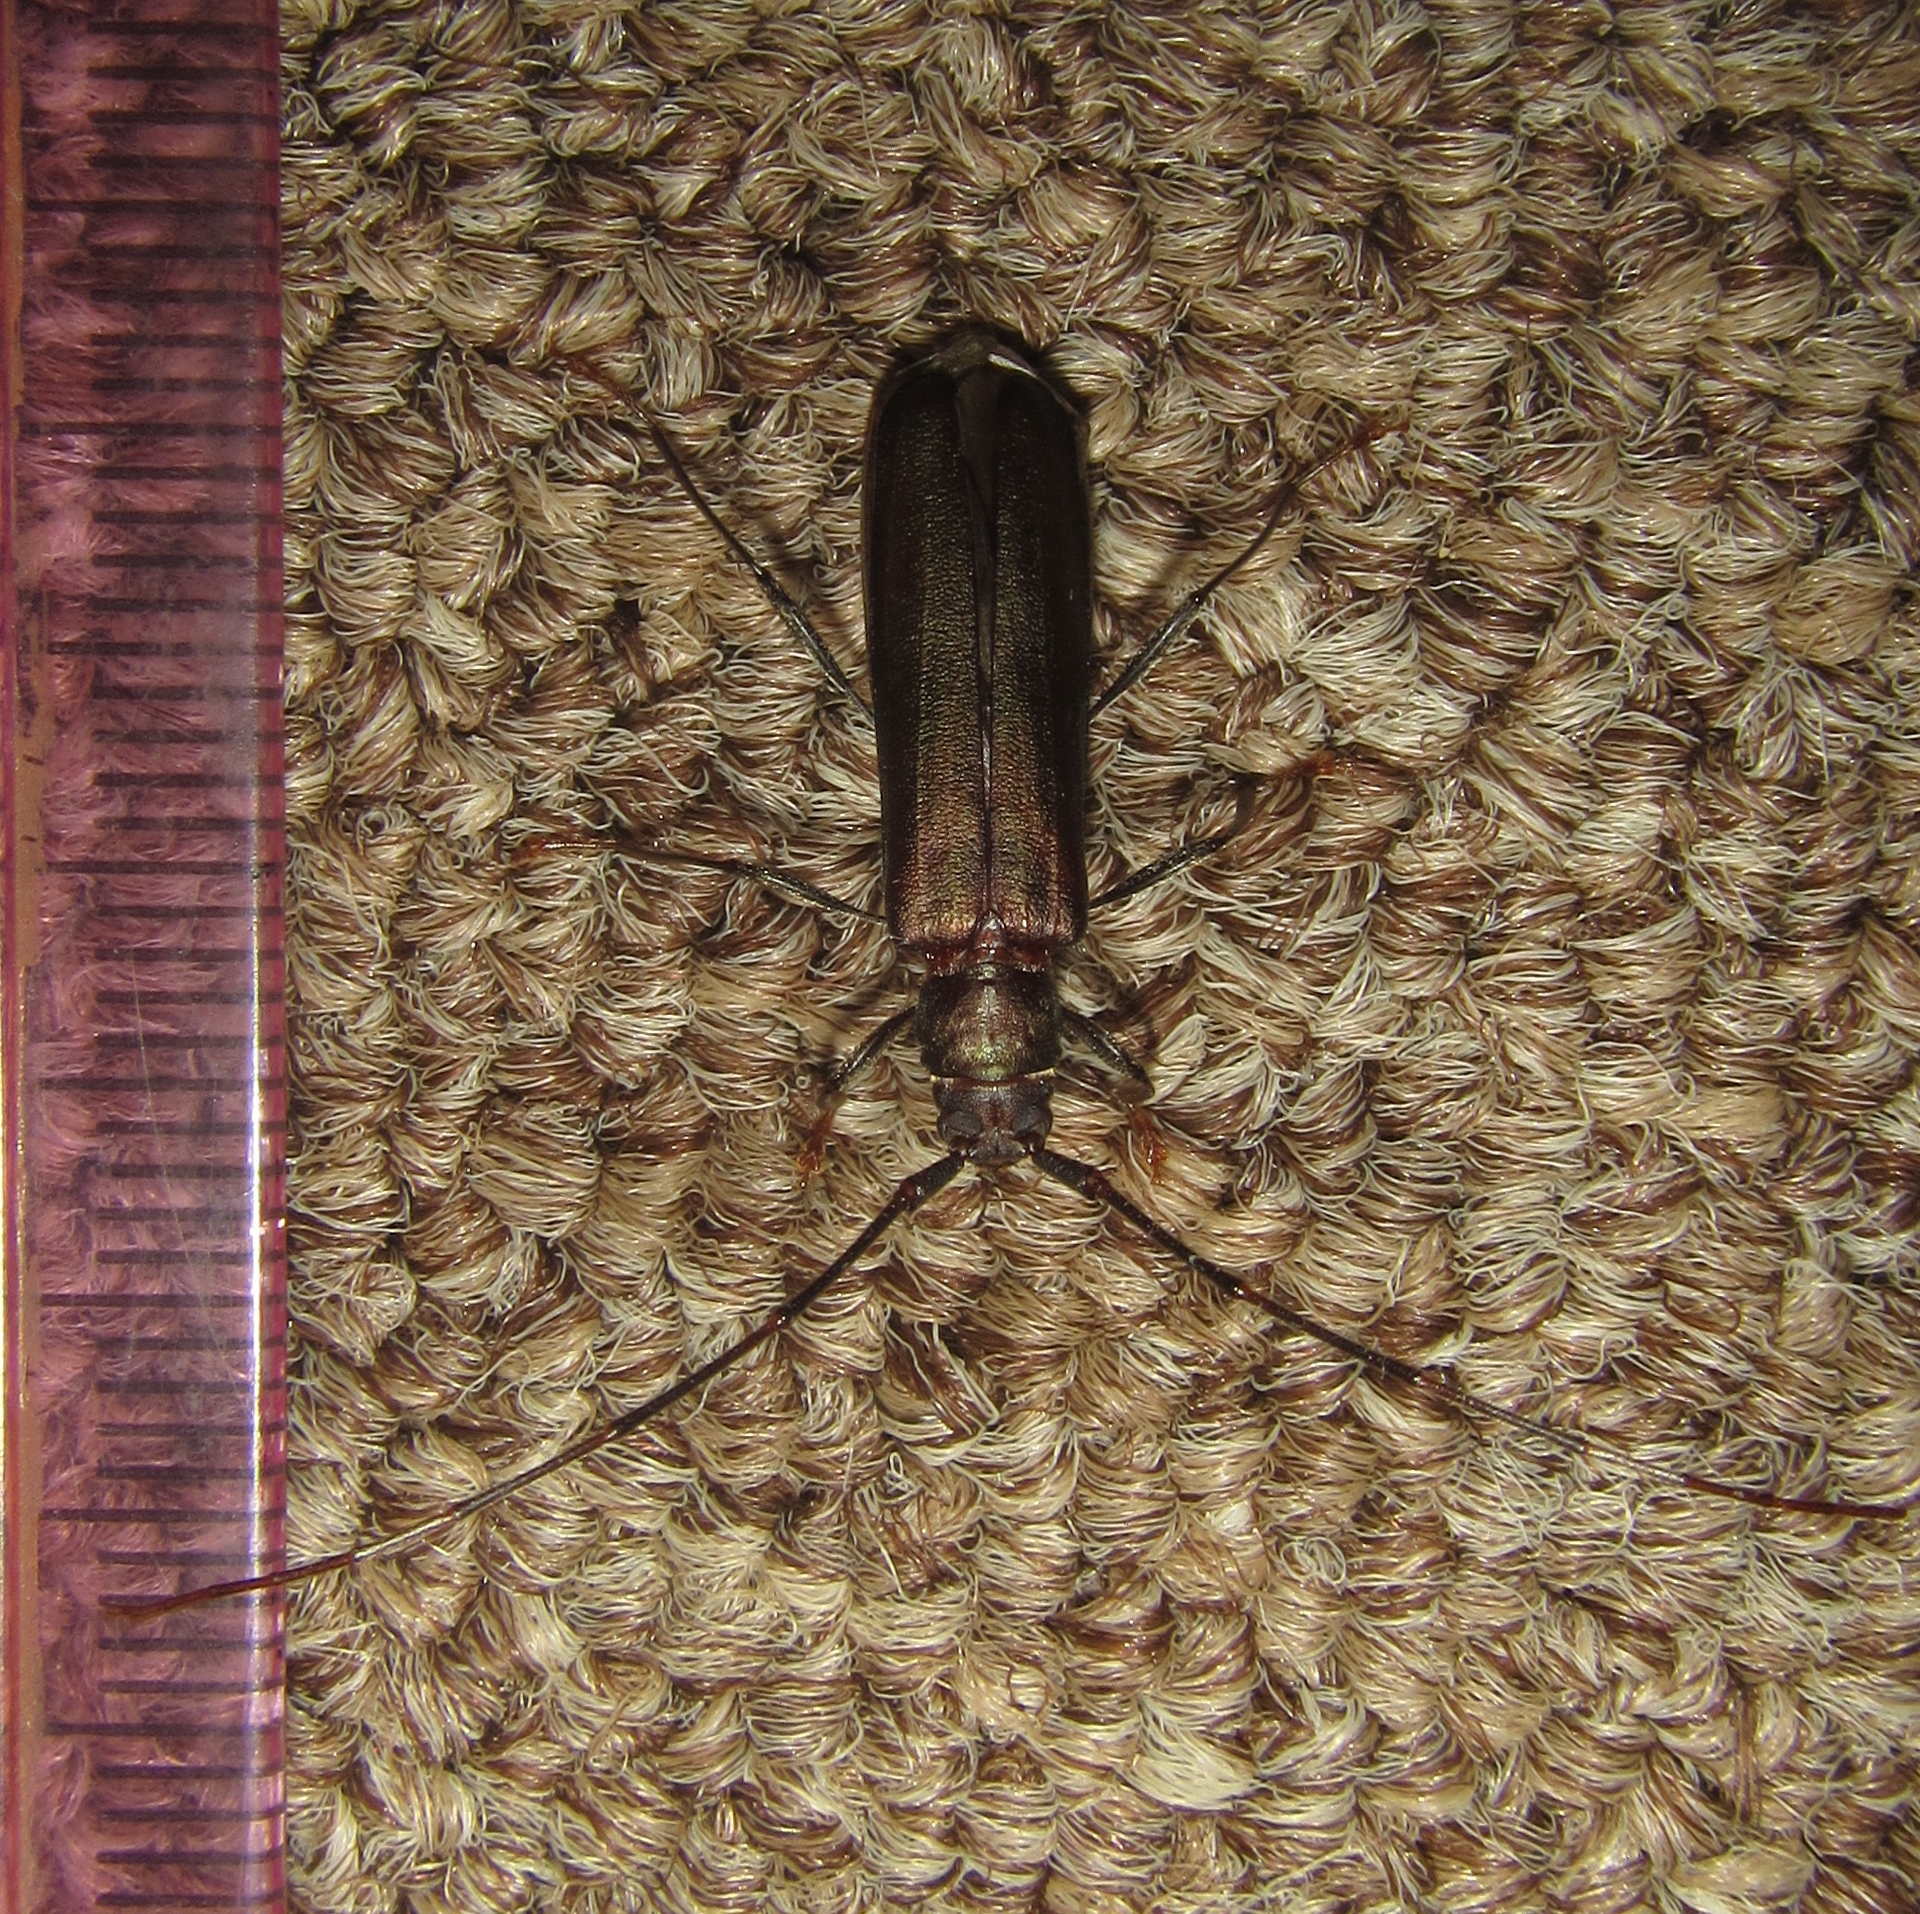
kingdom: Animalia
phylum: Arthropoda
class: Insecta
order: Coleoptera
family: Cerambycidae
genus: Xystrocera
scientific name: Xystrocera erosa
